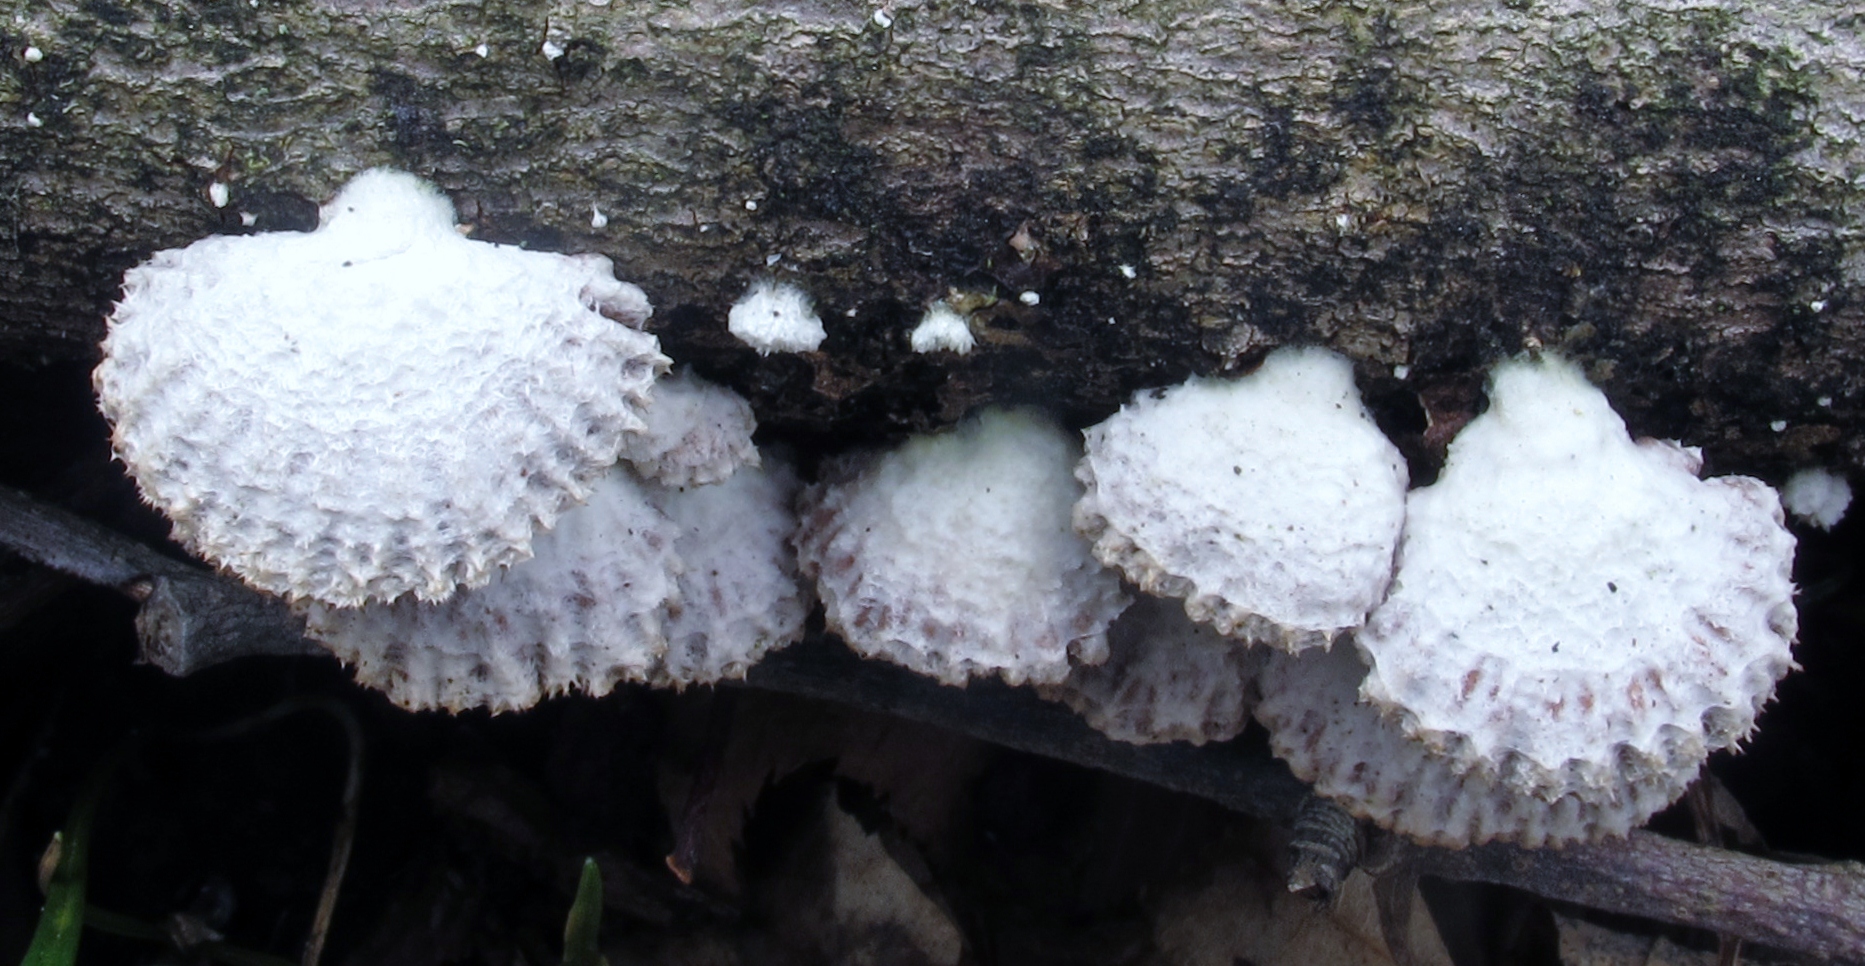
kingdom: Fungi
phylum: Basidiomycota
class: Agaricomycetes
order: Agaricales
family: Schizophyllaceae
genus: Schizophyllum
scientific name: Schizophyllum commune
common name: Common porecrust
